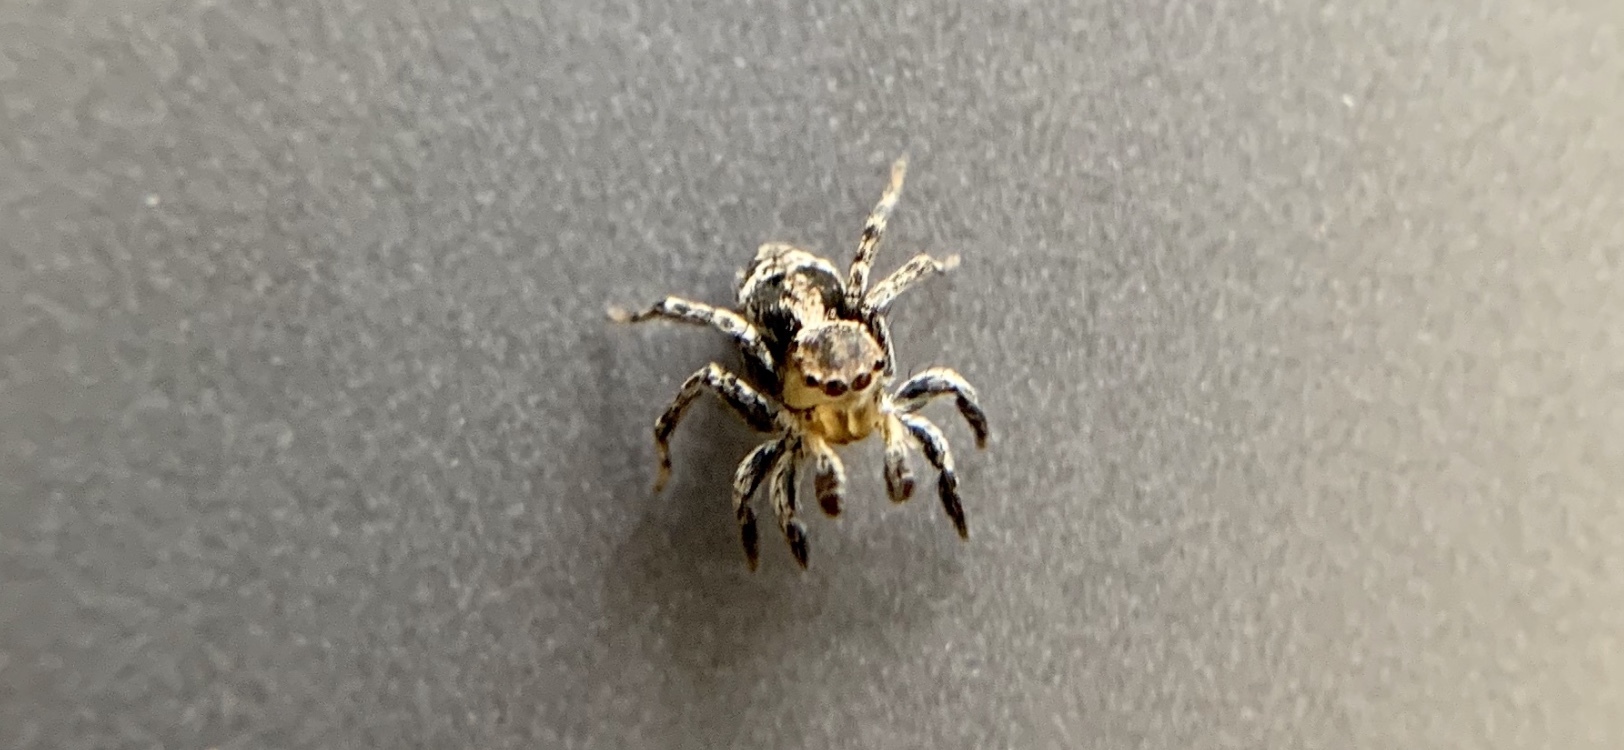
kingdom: Animalia
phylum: Arthropoda
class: Arachnida
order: Araneae
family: Salticidae
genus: Naphrys
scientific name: Naphrys pulex
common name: Flea jumping spider
